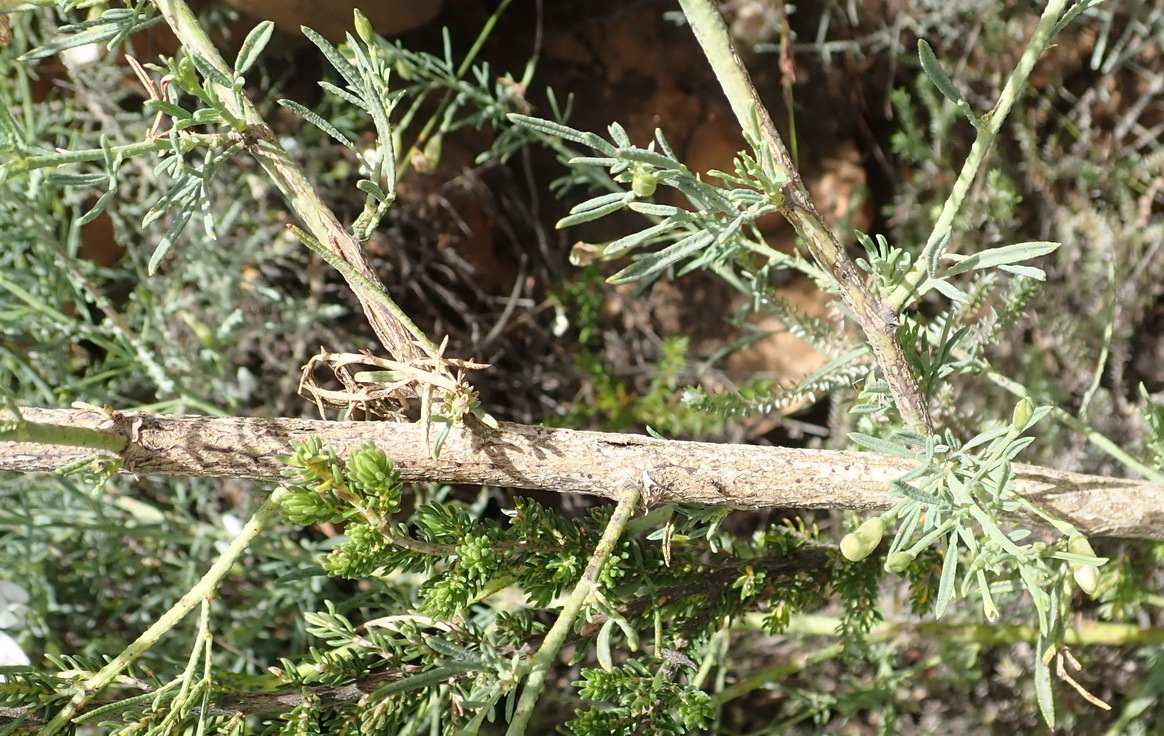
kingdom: Plantae
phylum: Tracheophyta
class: Magnoliopsida
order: Fabales
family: Fabaceae
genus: Psoralea
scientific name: Psoralea axillaris
